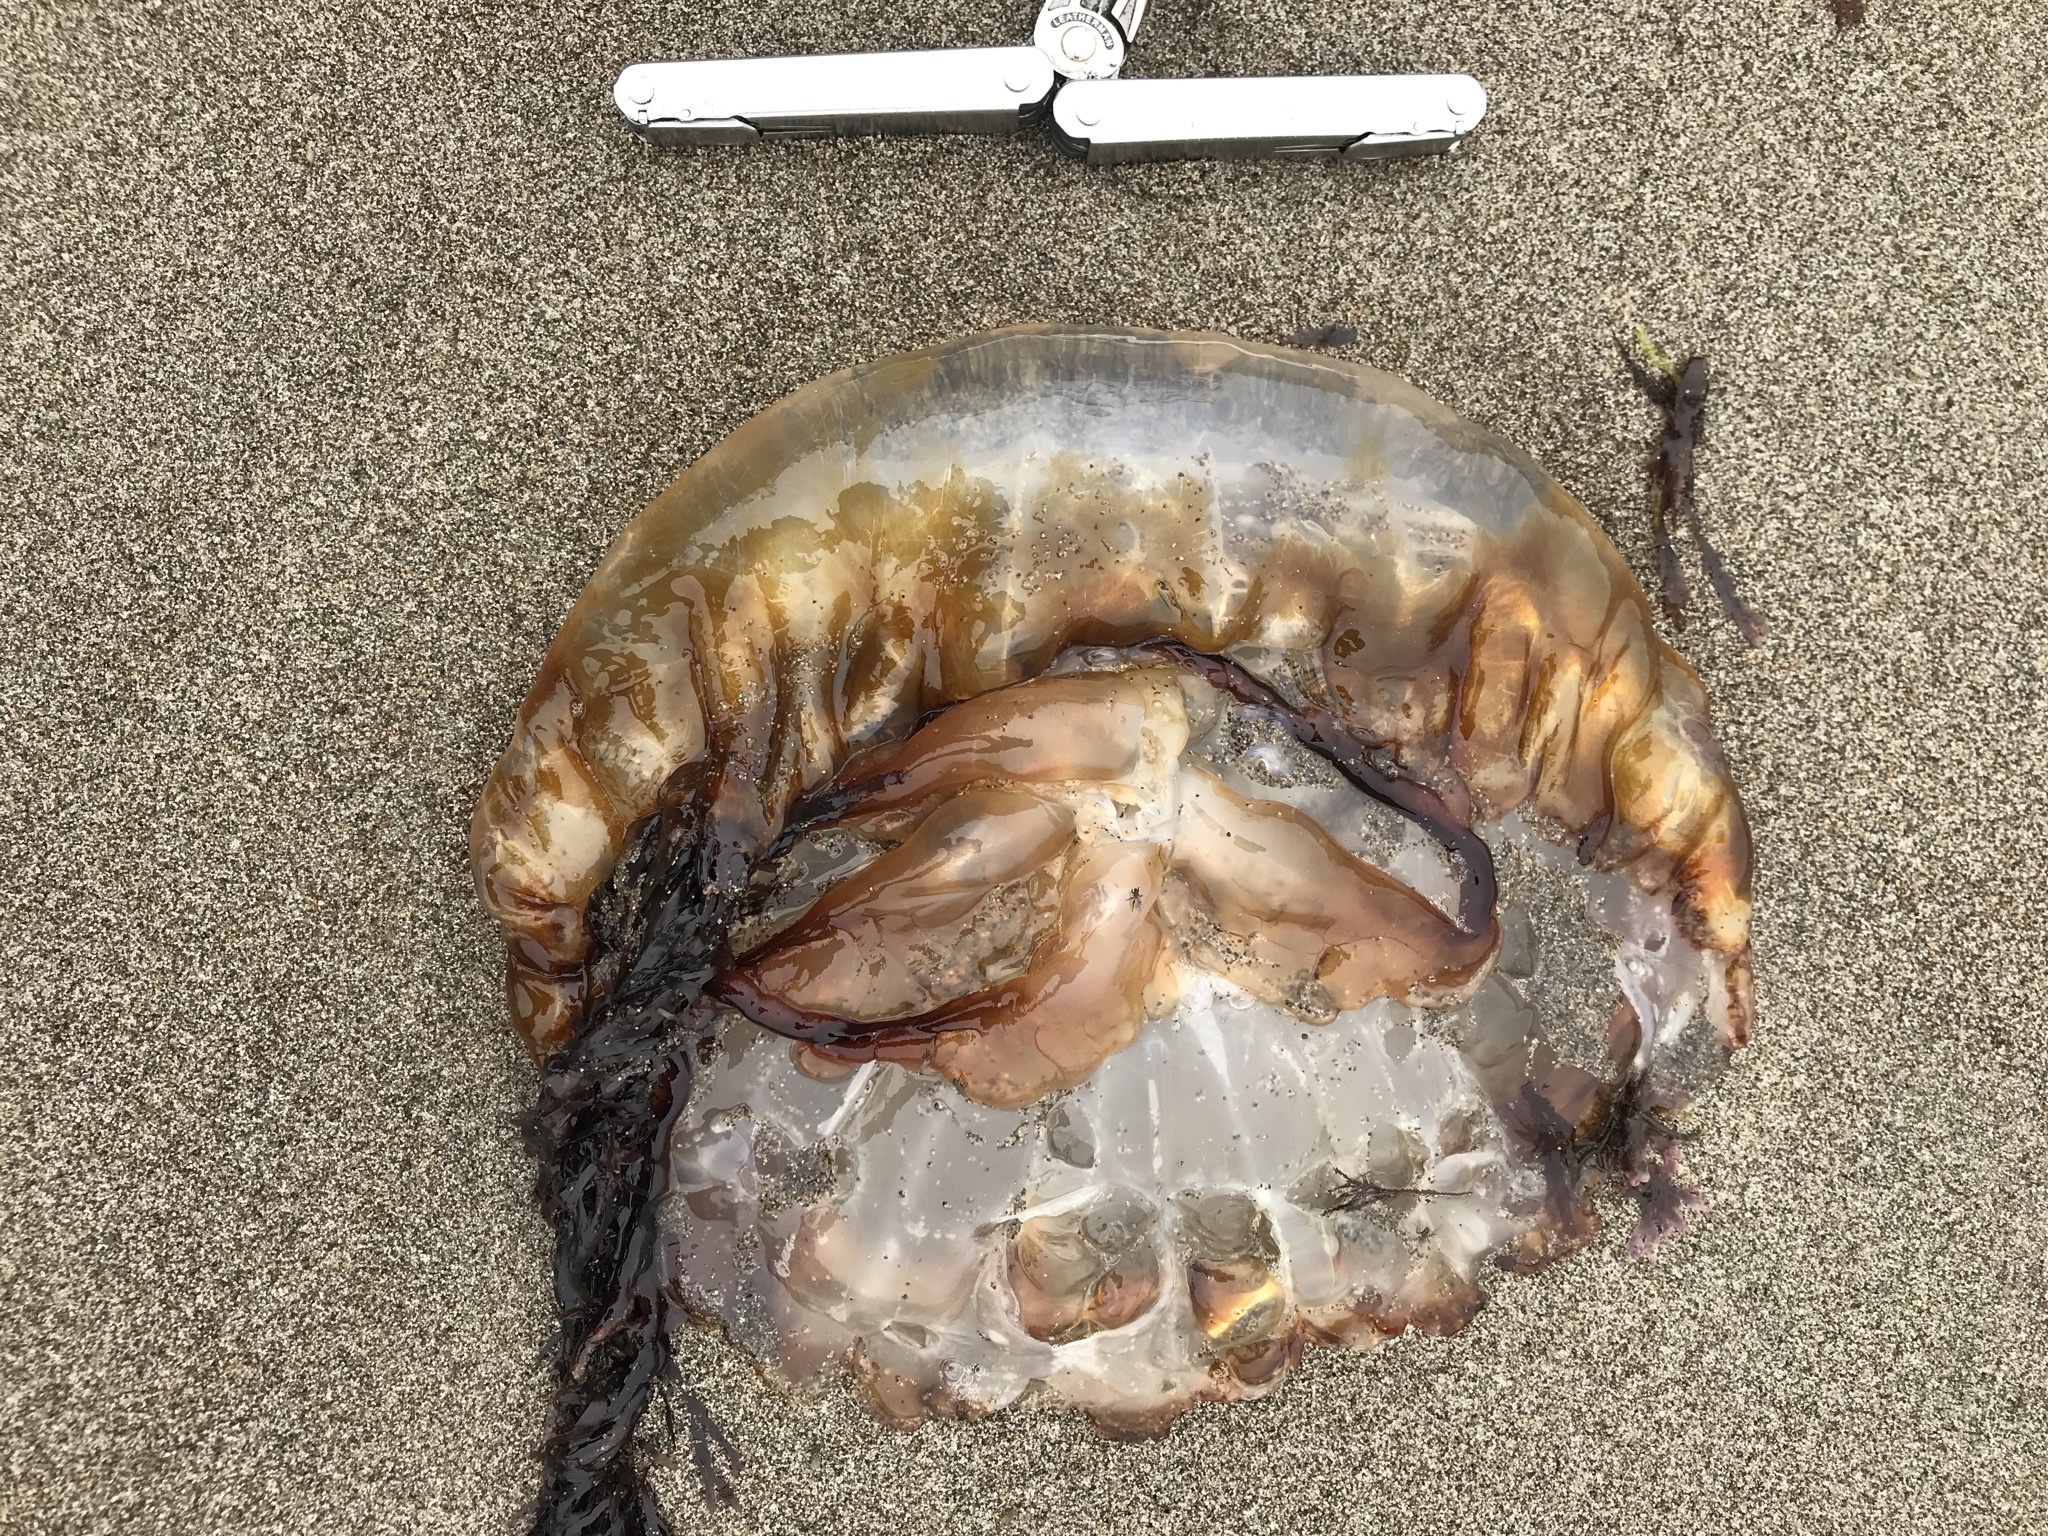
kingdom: Animalia
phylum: Cnidaria
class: Scyphozoa
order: Semaeostomeae
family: Pelagiidae
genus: Chrysaora
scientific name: Chrysaora fuscescens
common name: Sea nettle
